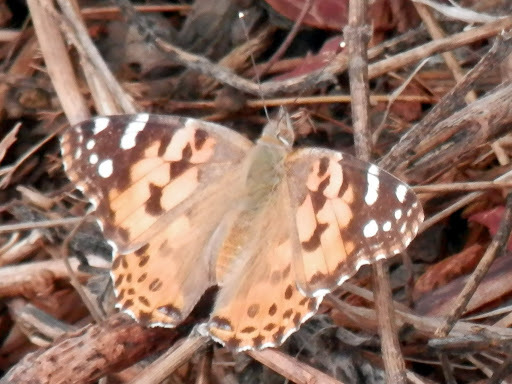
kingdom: Animalia
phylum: Arthropoda
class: Insecta
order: Lepidoptera
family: Nymphalidae
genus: Vanessa
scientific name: Vanessa cardui
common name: Painted lady
